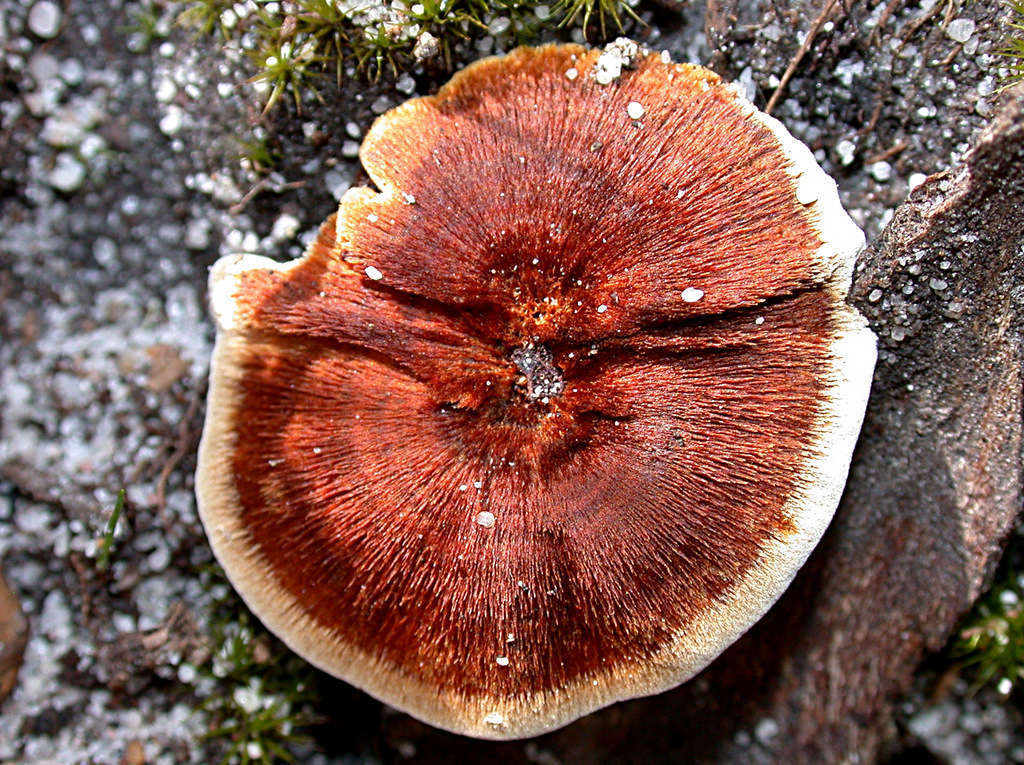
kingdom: Fungi
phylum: Basidiomycota
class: Agaricomycetes
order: Hymenochaetales
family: Hymenochaetaceae
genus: Coltricia
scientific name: Coltricia australica
